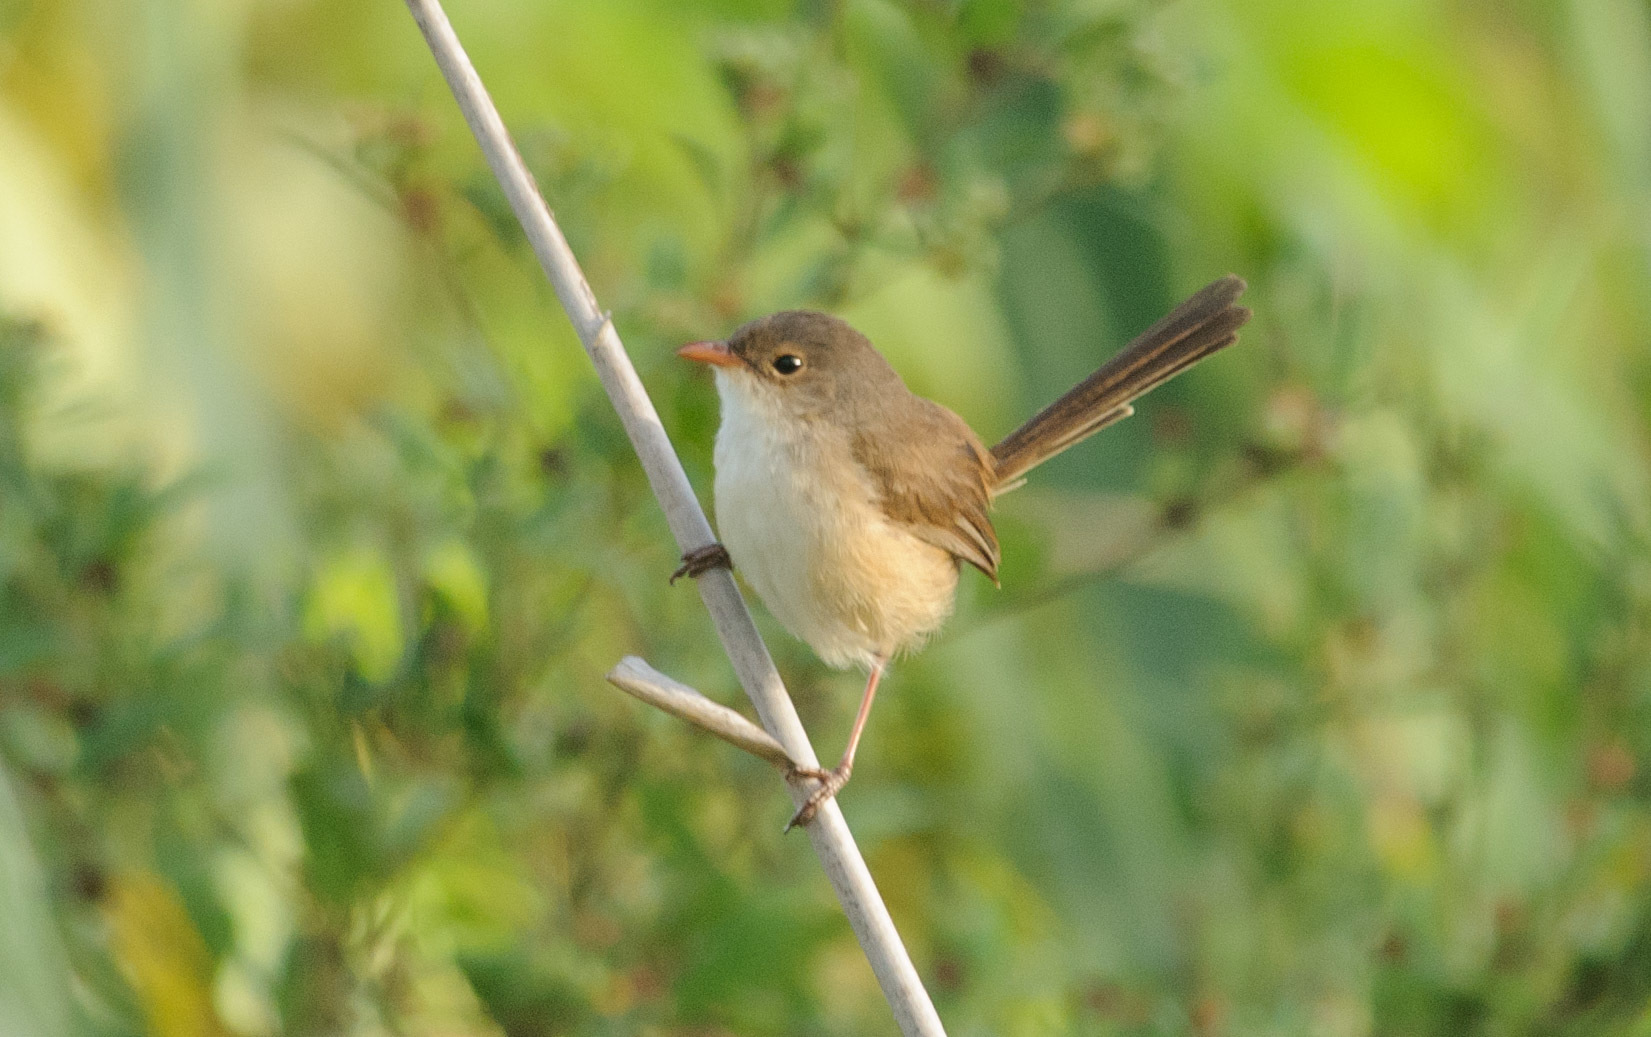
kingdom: Animalia
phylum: Chordata
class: Aves
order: Passeriformes
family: Maluridae
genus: Malurus
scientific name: Malurus melanocephalus
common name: Red-backed fairywren
